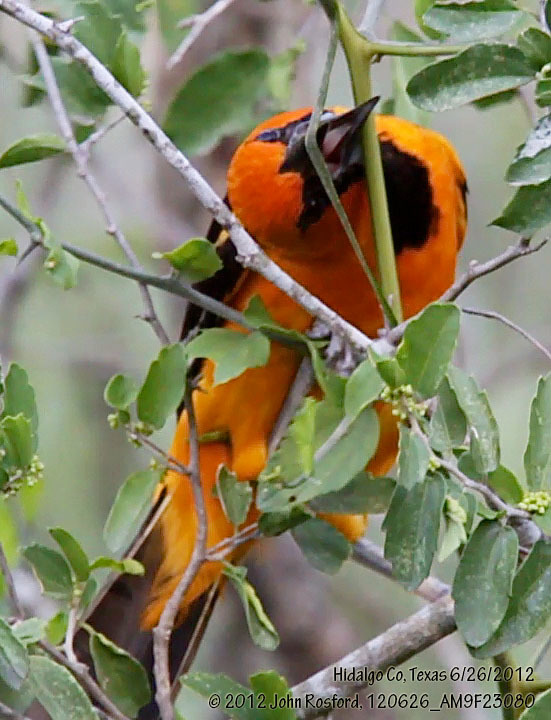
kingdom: Animalia
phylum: Chordata
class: Aves
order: Passeriformes
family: Icteridae
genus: Icterus
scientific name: Icterus gularis
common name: Altamira oriole
